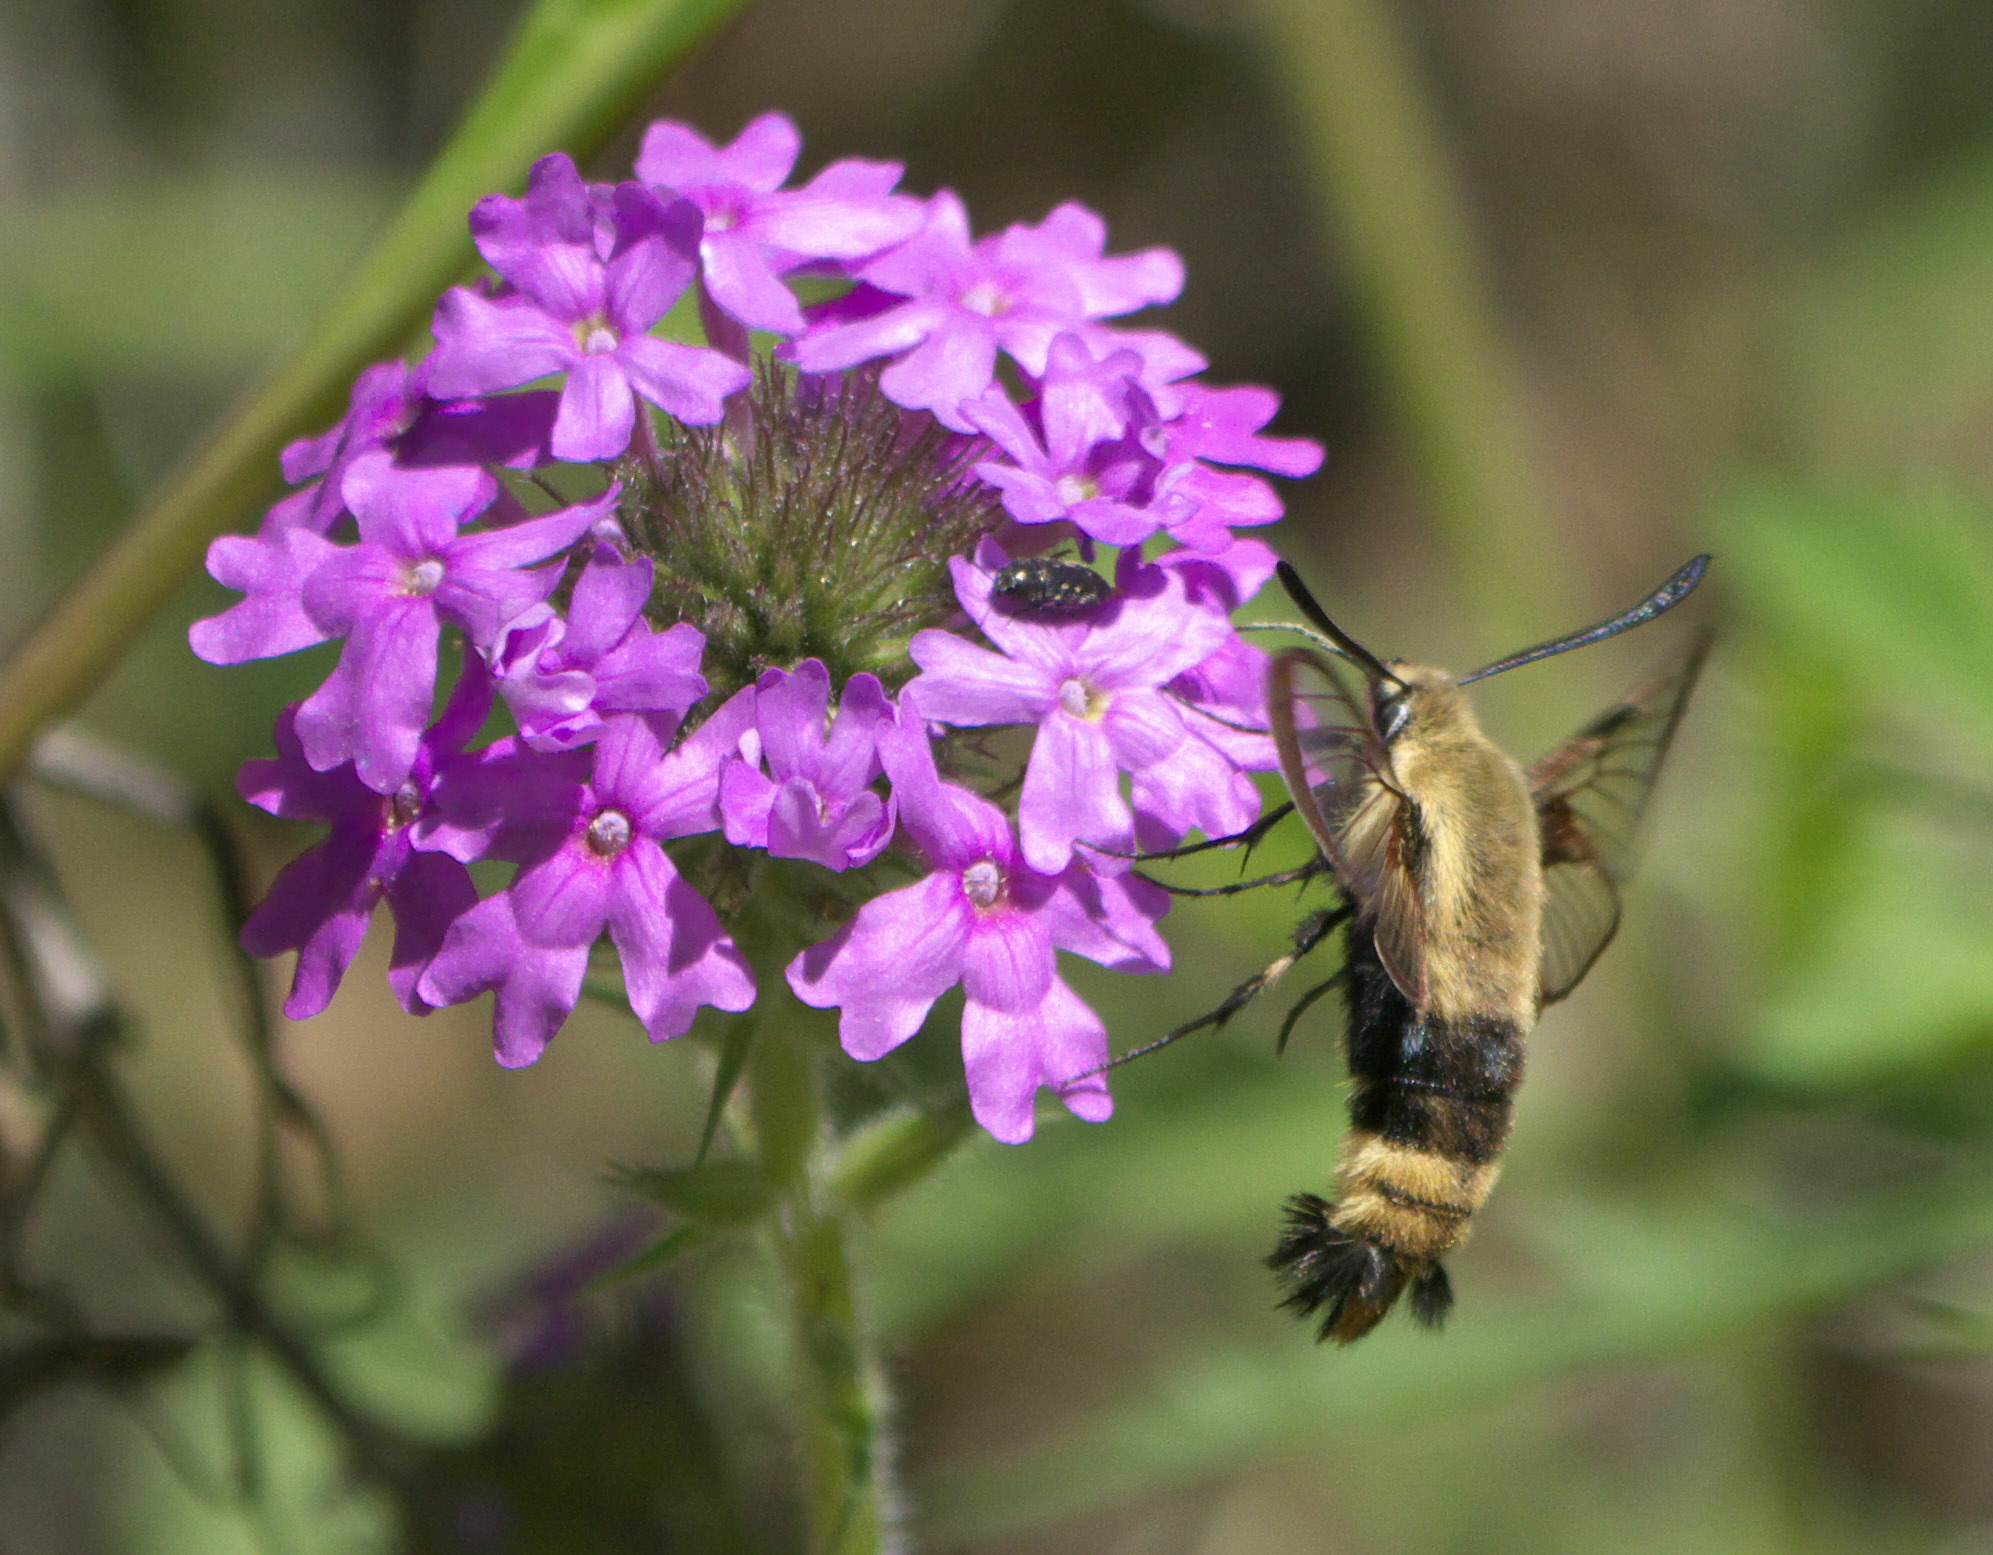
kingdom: Animalia
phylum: Arthropoda
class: Insecta
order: Lepidoptera
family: Sphingidae
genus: Hemaris
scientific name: Hemaris diffinis
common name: Bumblebee moth
